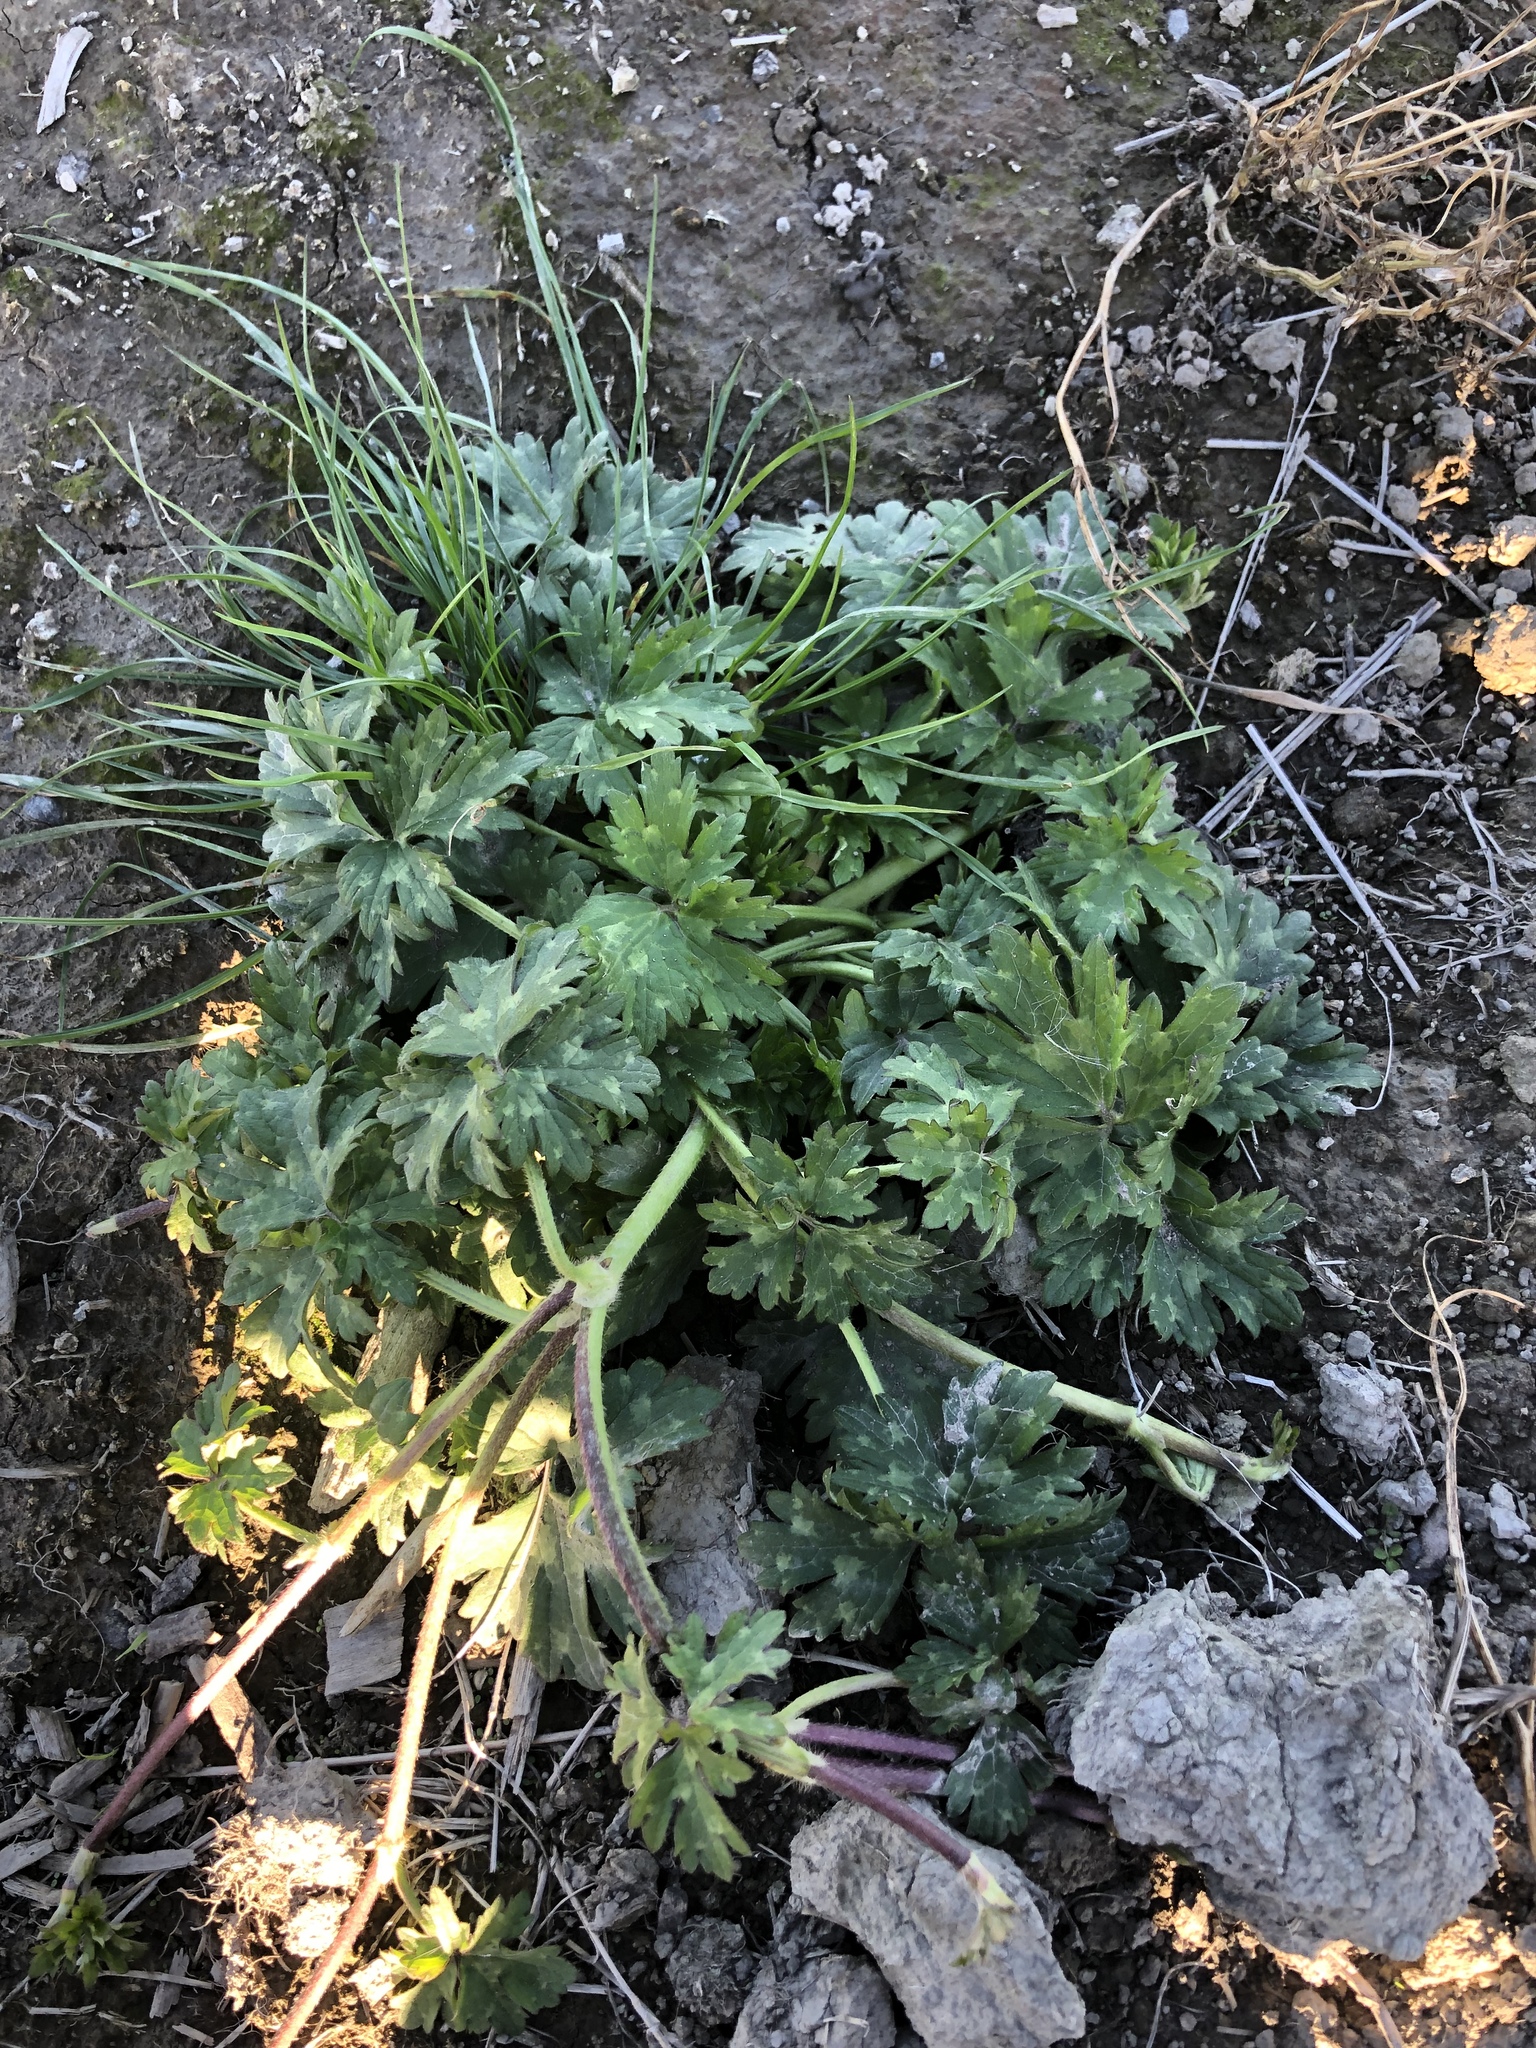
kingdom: Plantae
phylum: Tracheophyta
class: Magnoliopsida
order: Ranunculales
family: Ranunculaceae
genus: Ranunculus
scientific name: Ranunculus repens
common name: Creeping buttercup
